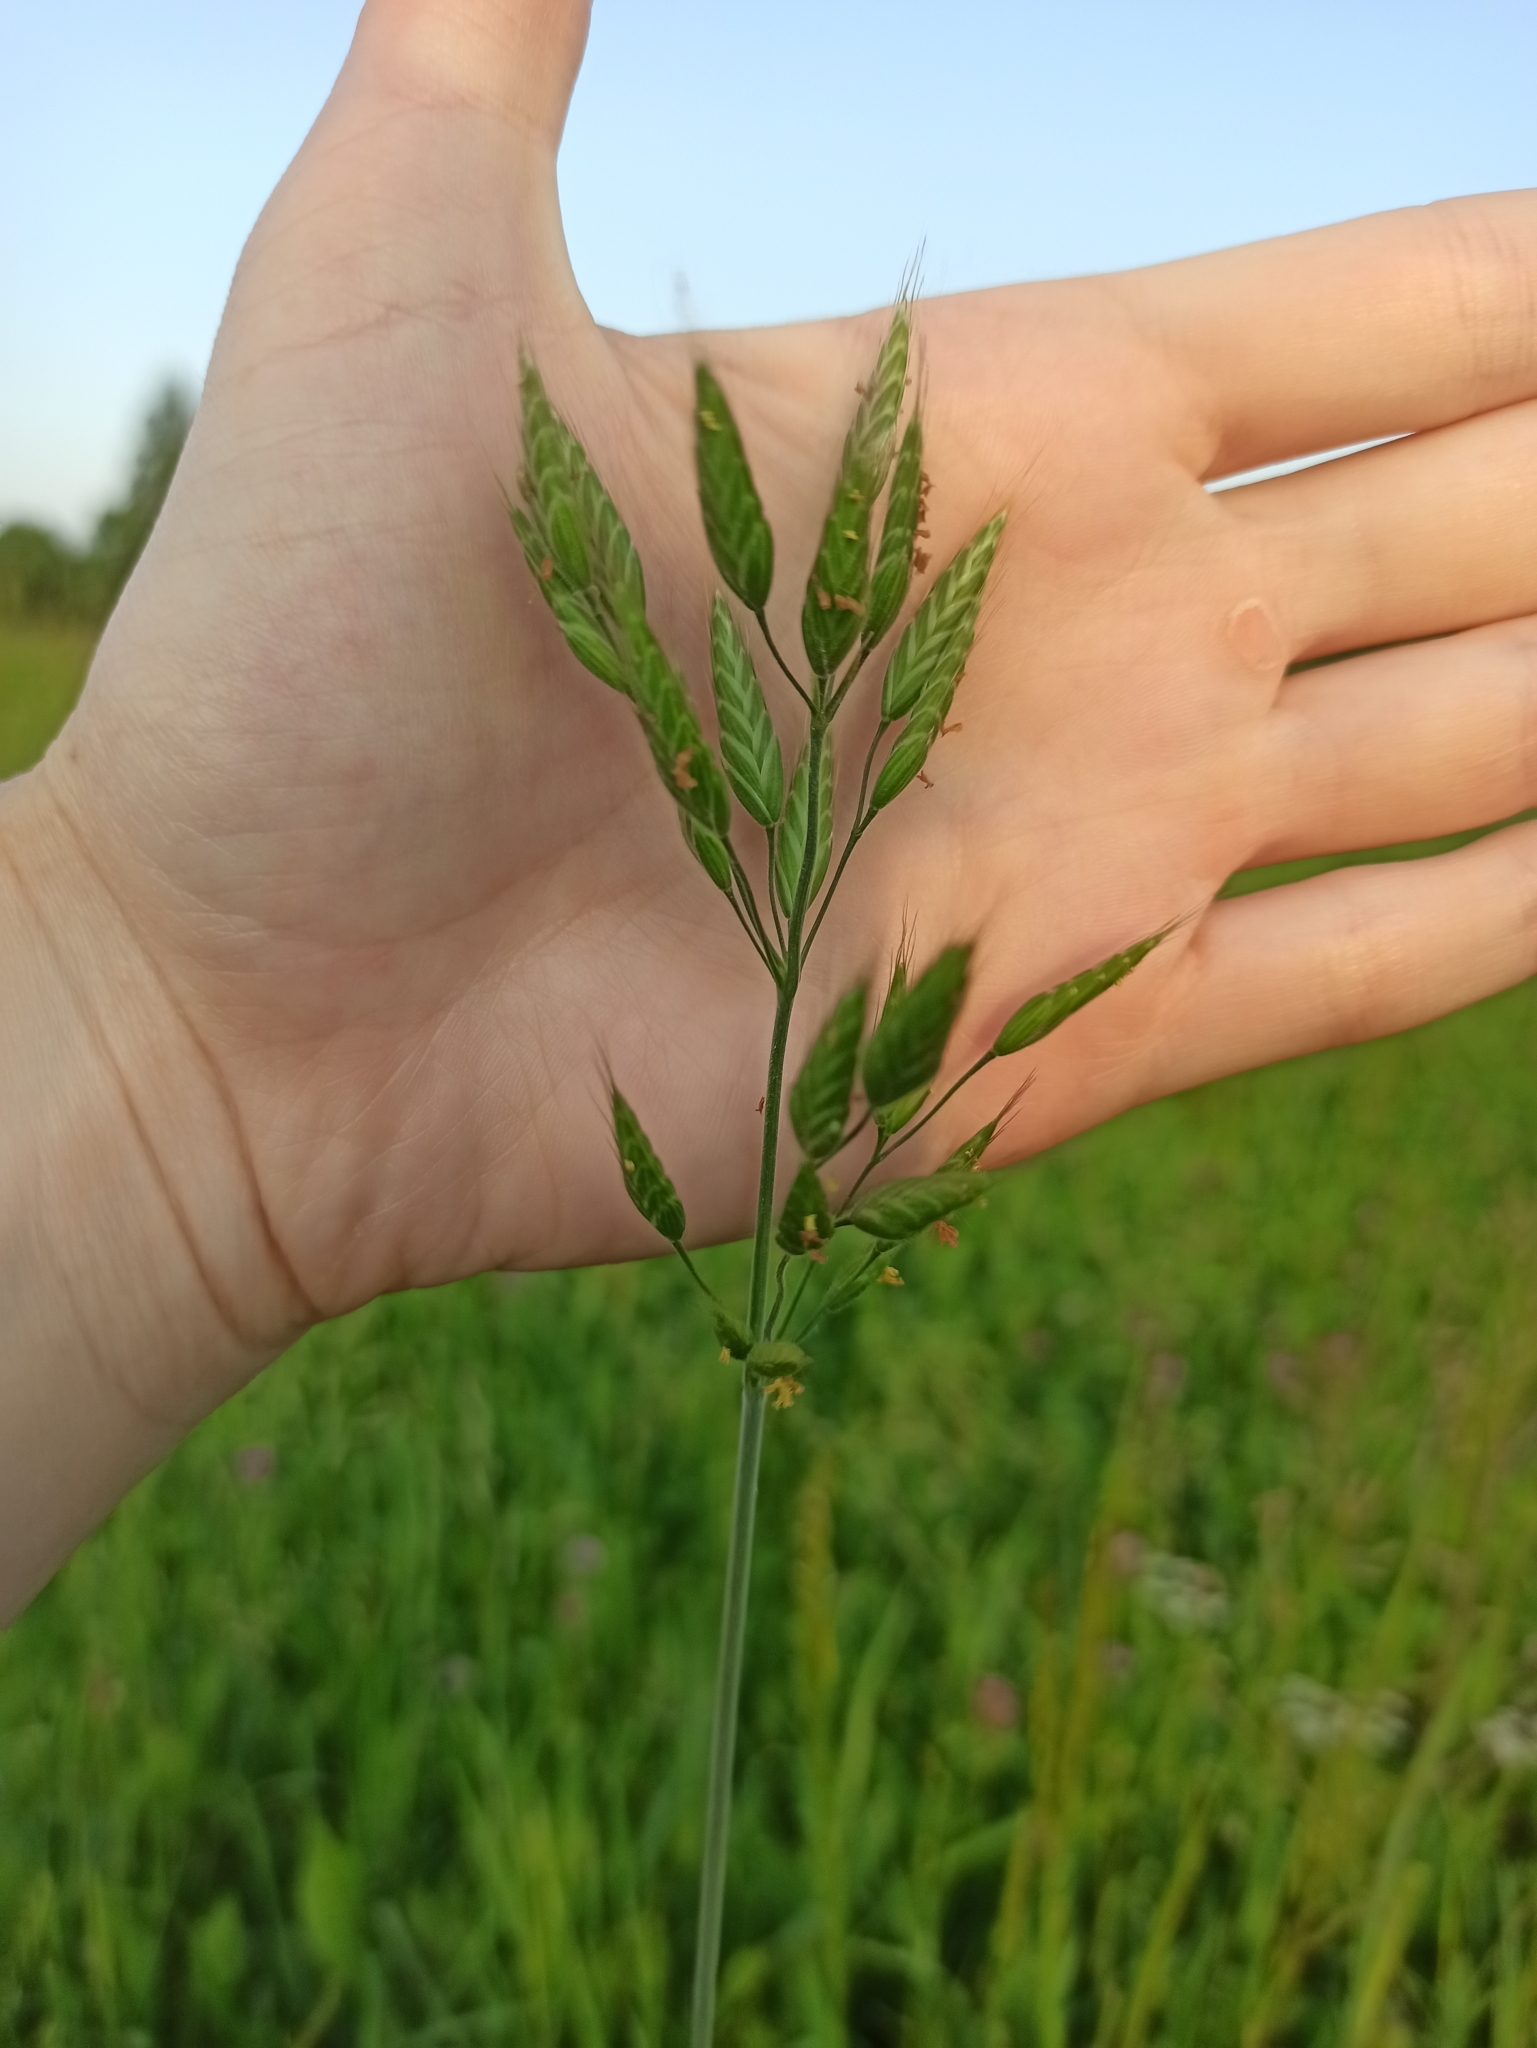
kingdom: Plantae
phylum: Tracheophyta
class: Liliopsida
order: Poales
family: Poaceae
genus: Bromus
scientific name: Bromus hordeaceus
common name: Soft brome
